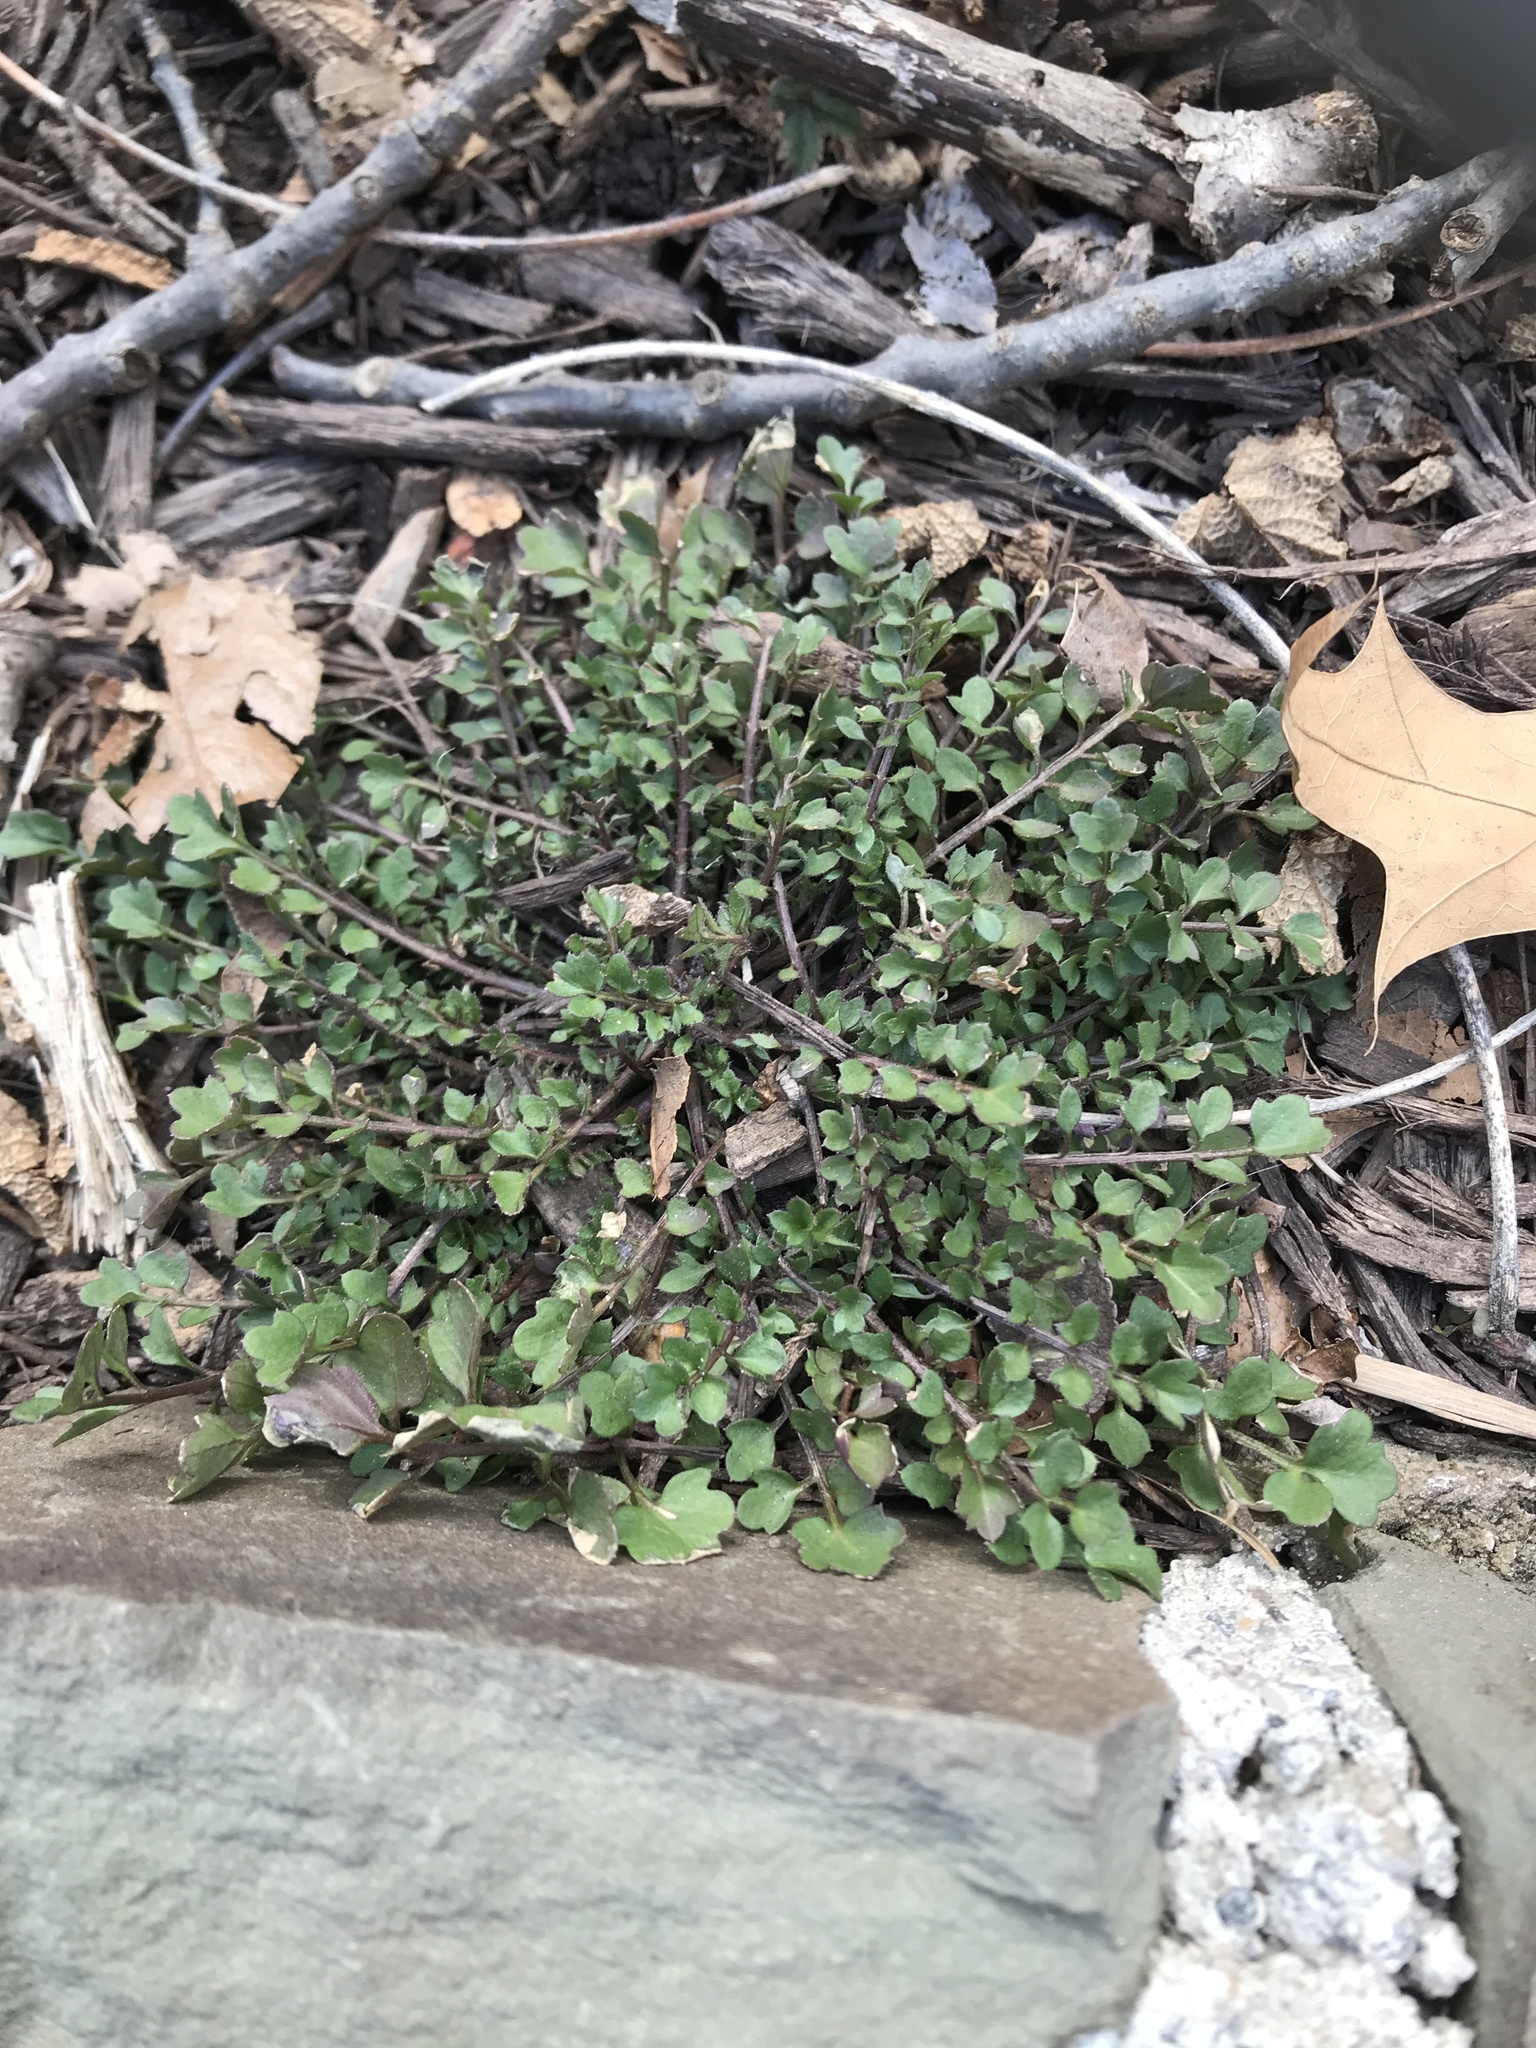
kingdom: Plantae
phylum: Tracheophyta
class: Magnoliopsida
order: Brassicales
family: Brassicaceae
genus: Cardamine
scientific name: Cardamine hirsuta
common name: Hairy bittercress
